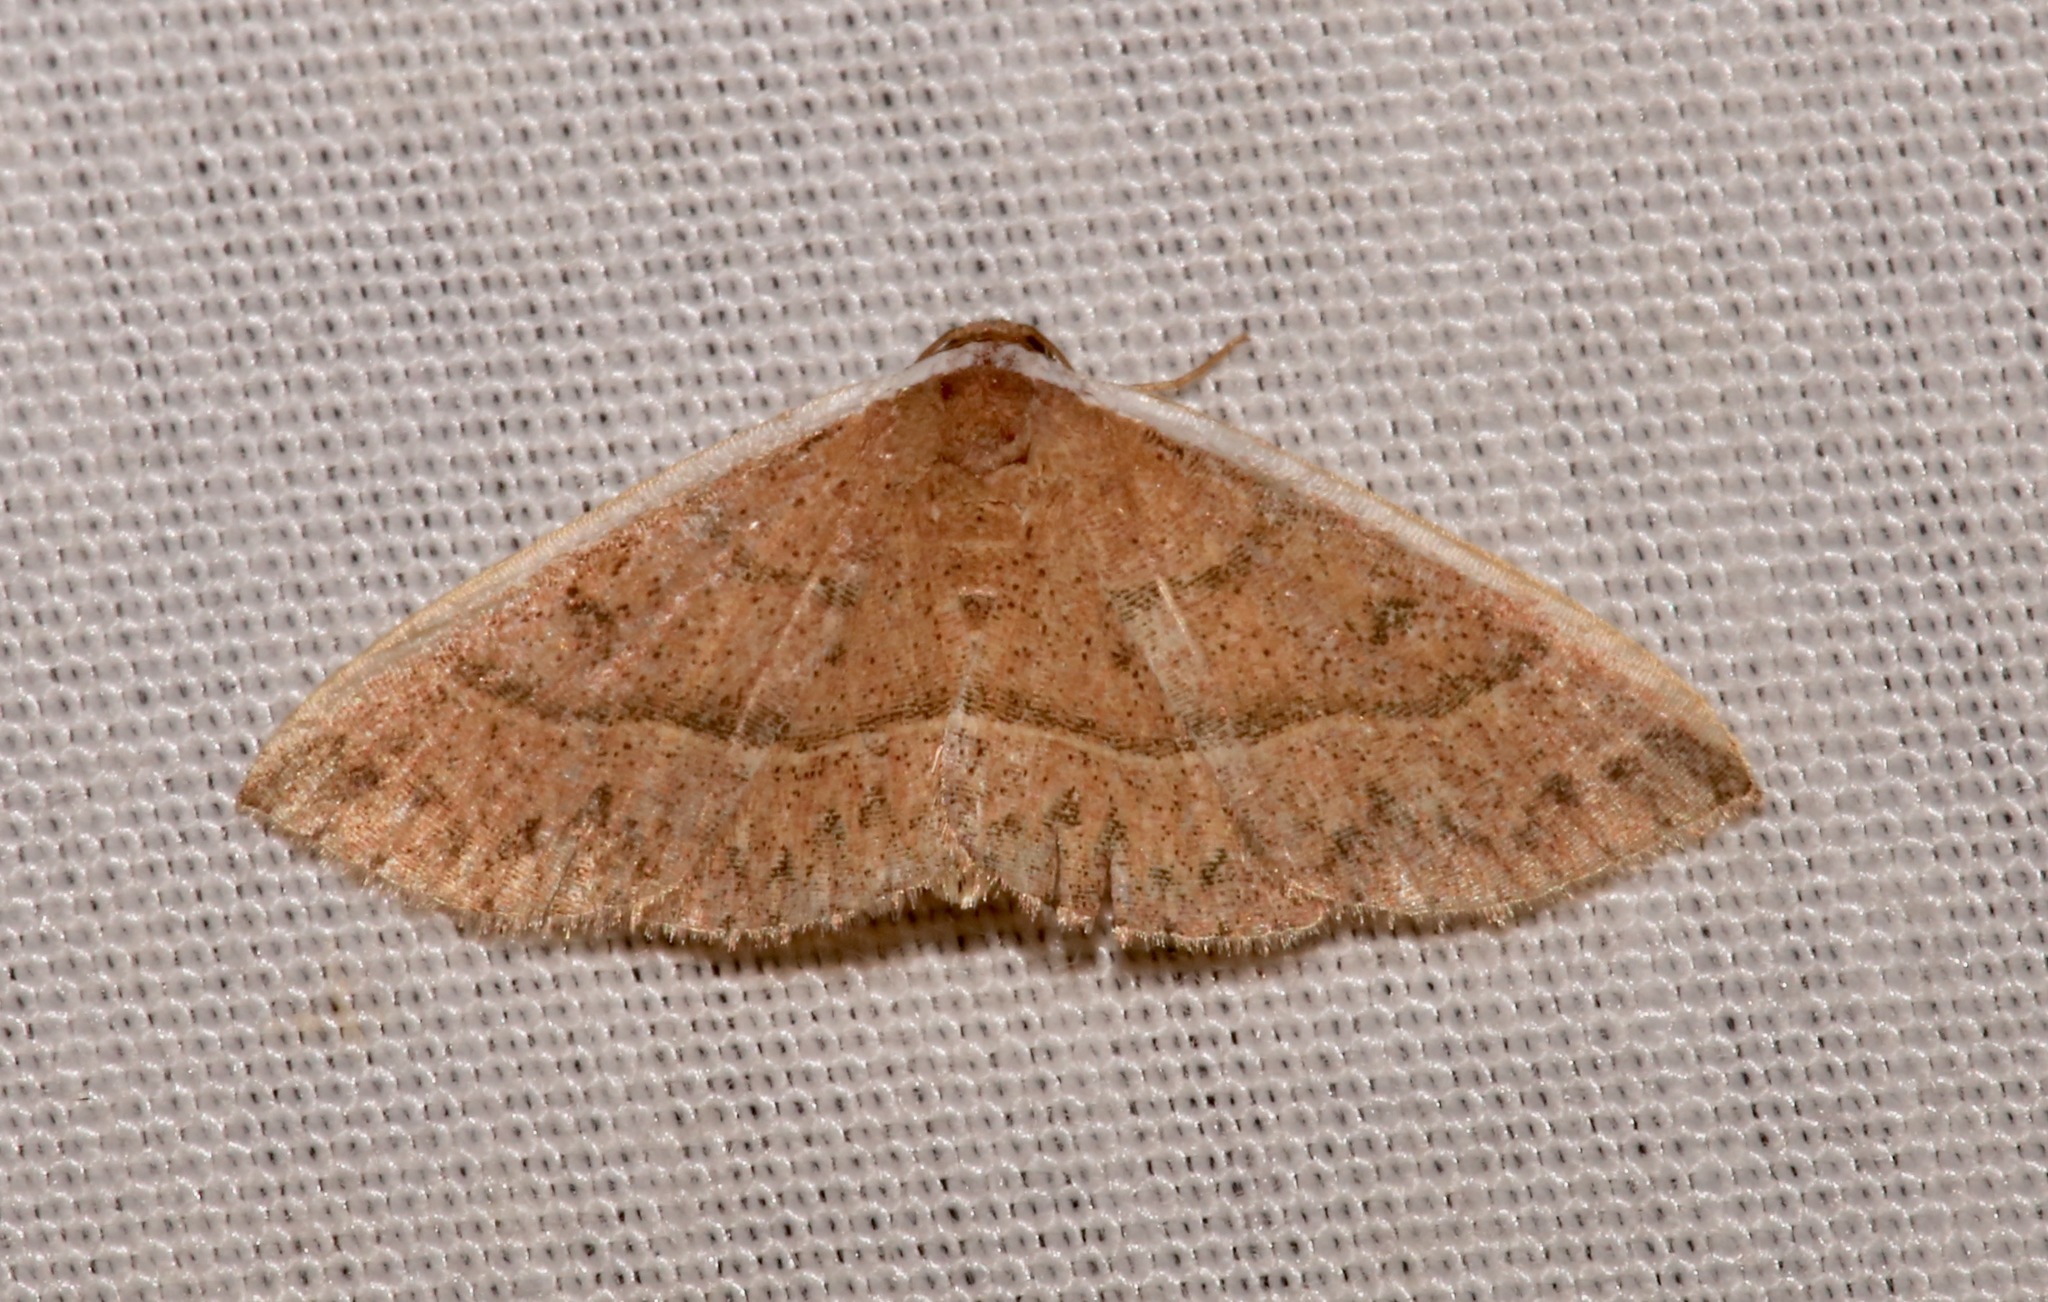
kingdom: Animalia
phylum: Arthropoda
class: Insecta
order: Lepidoptera
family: Noctuidae
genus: Oruza
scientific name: Oruza albocostata
